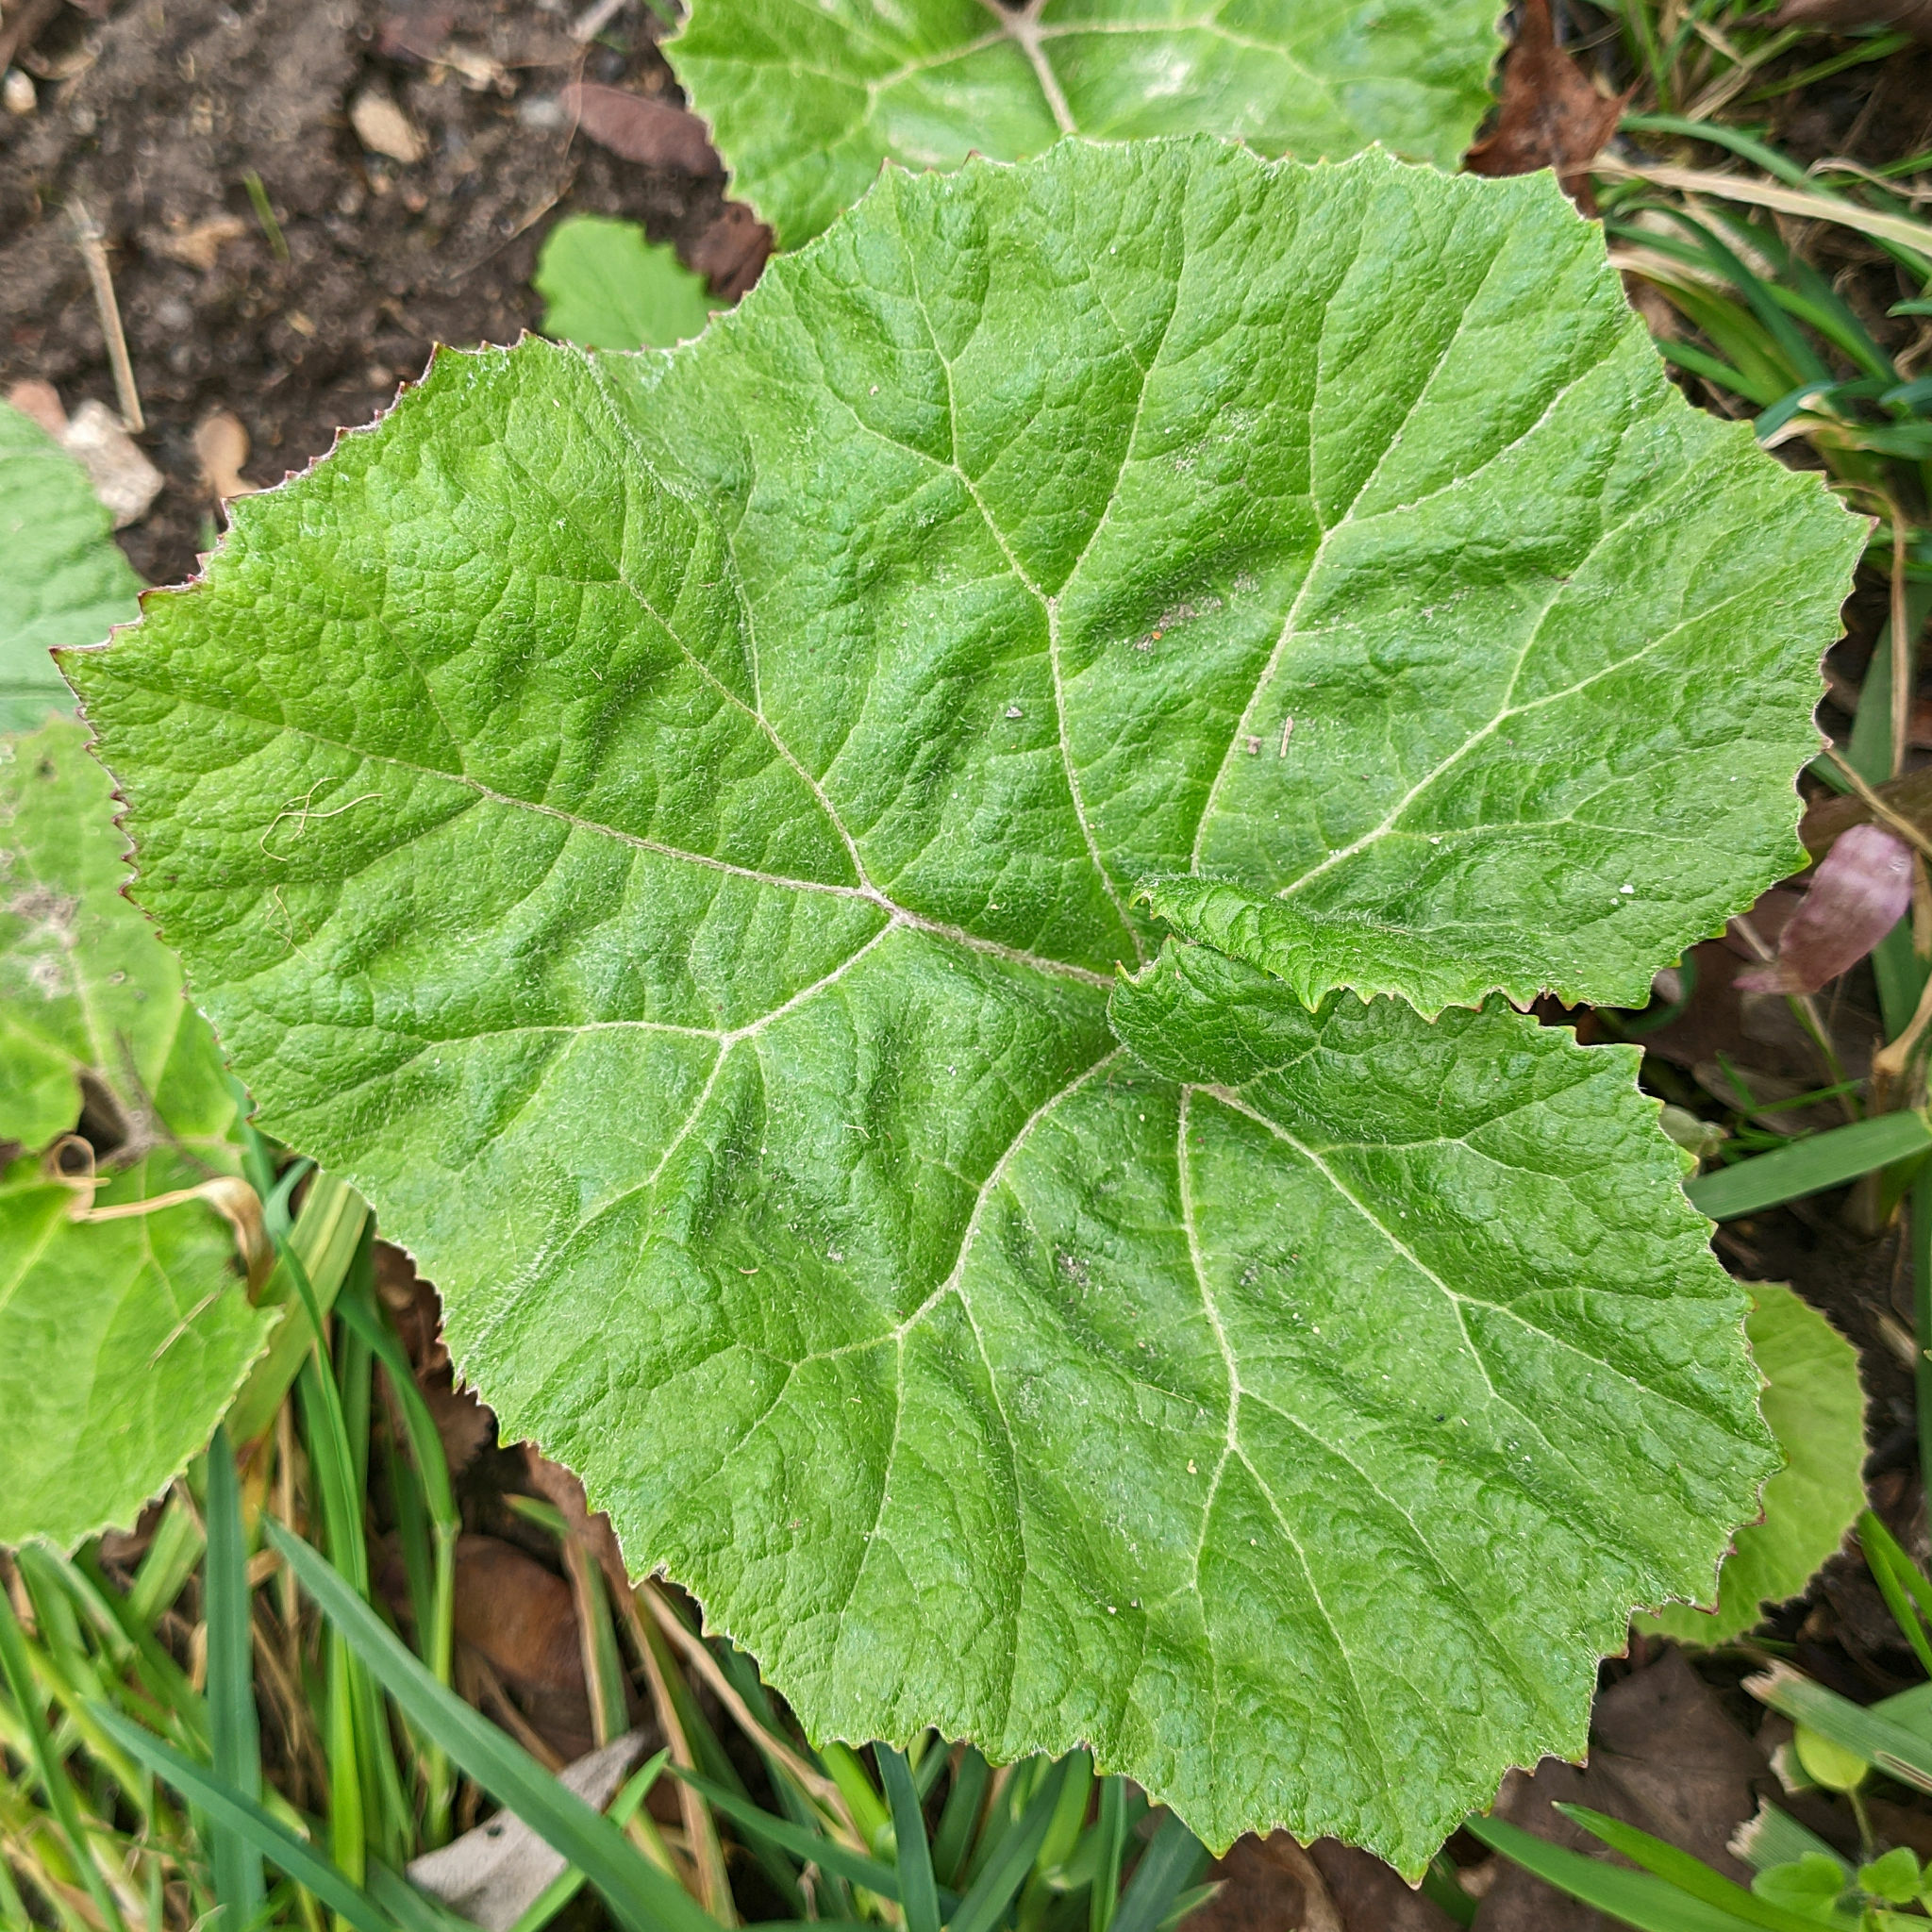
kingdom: Plantae
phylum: Tracheophyta
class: Magnoliopsida
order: Asterales
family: Asteraceae
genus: Petasites
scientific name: Petasites hybridus
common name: Butterbur
